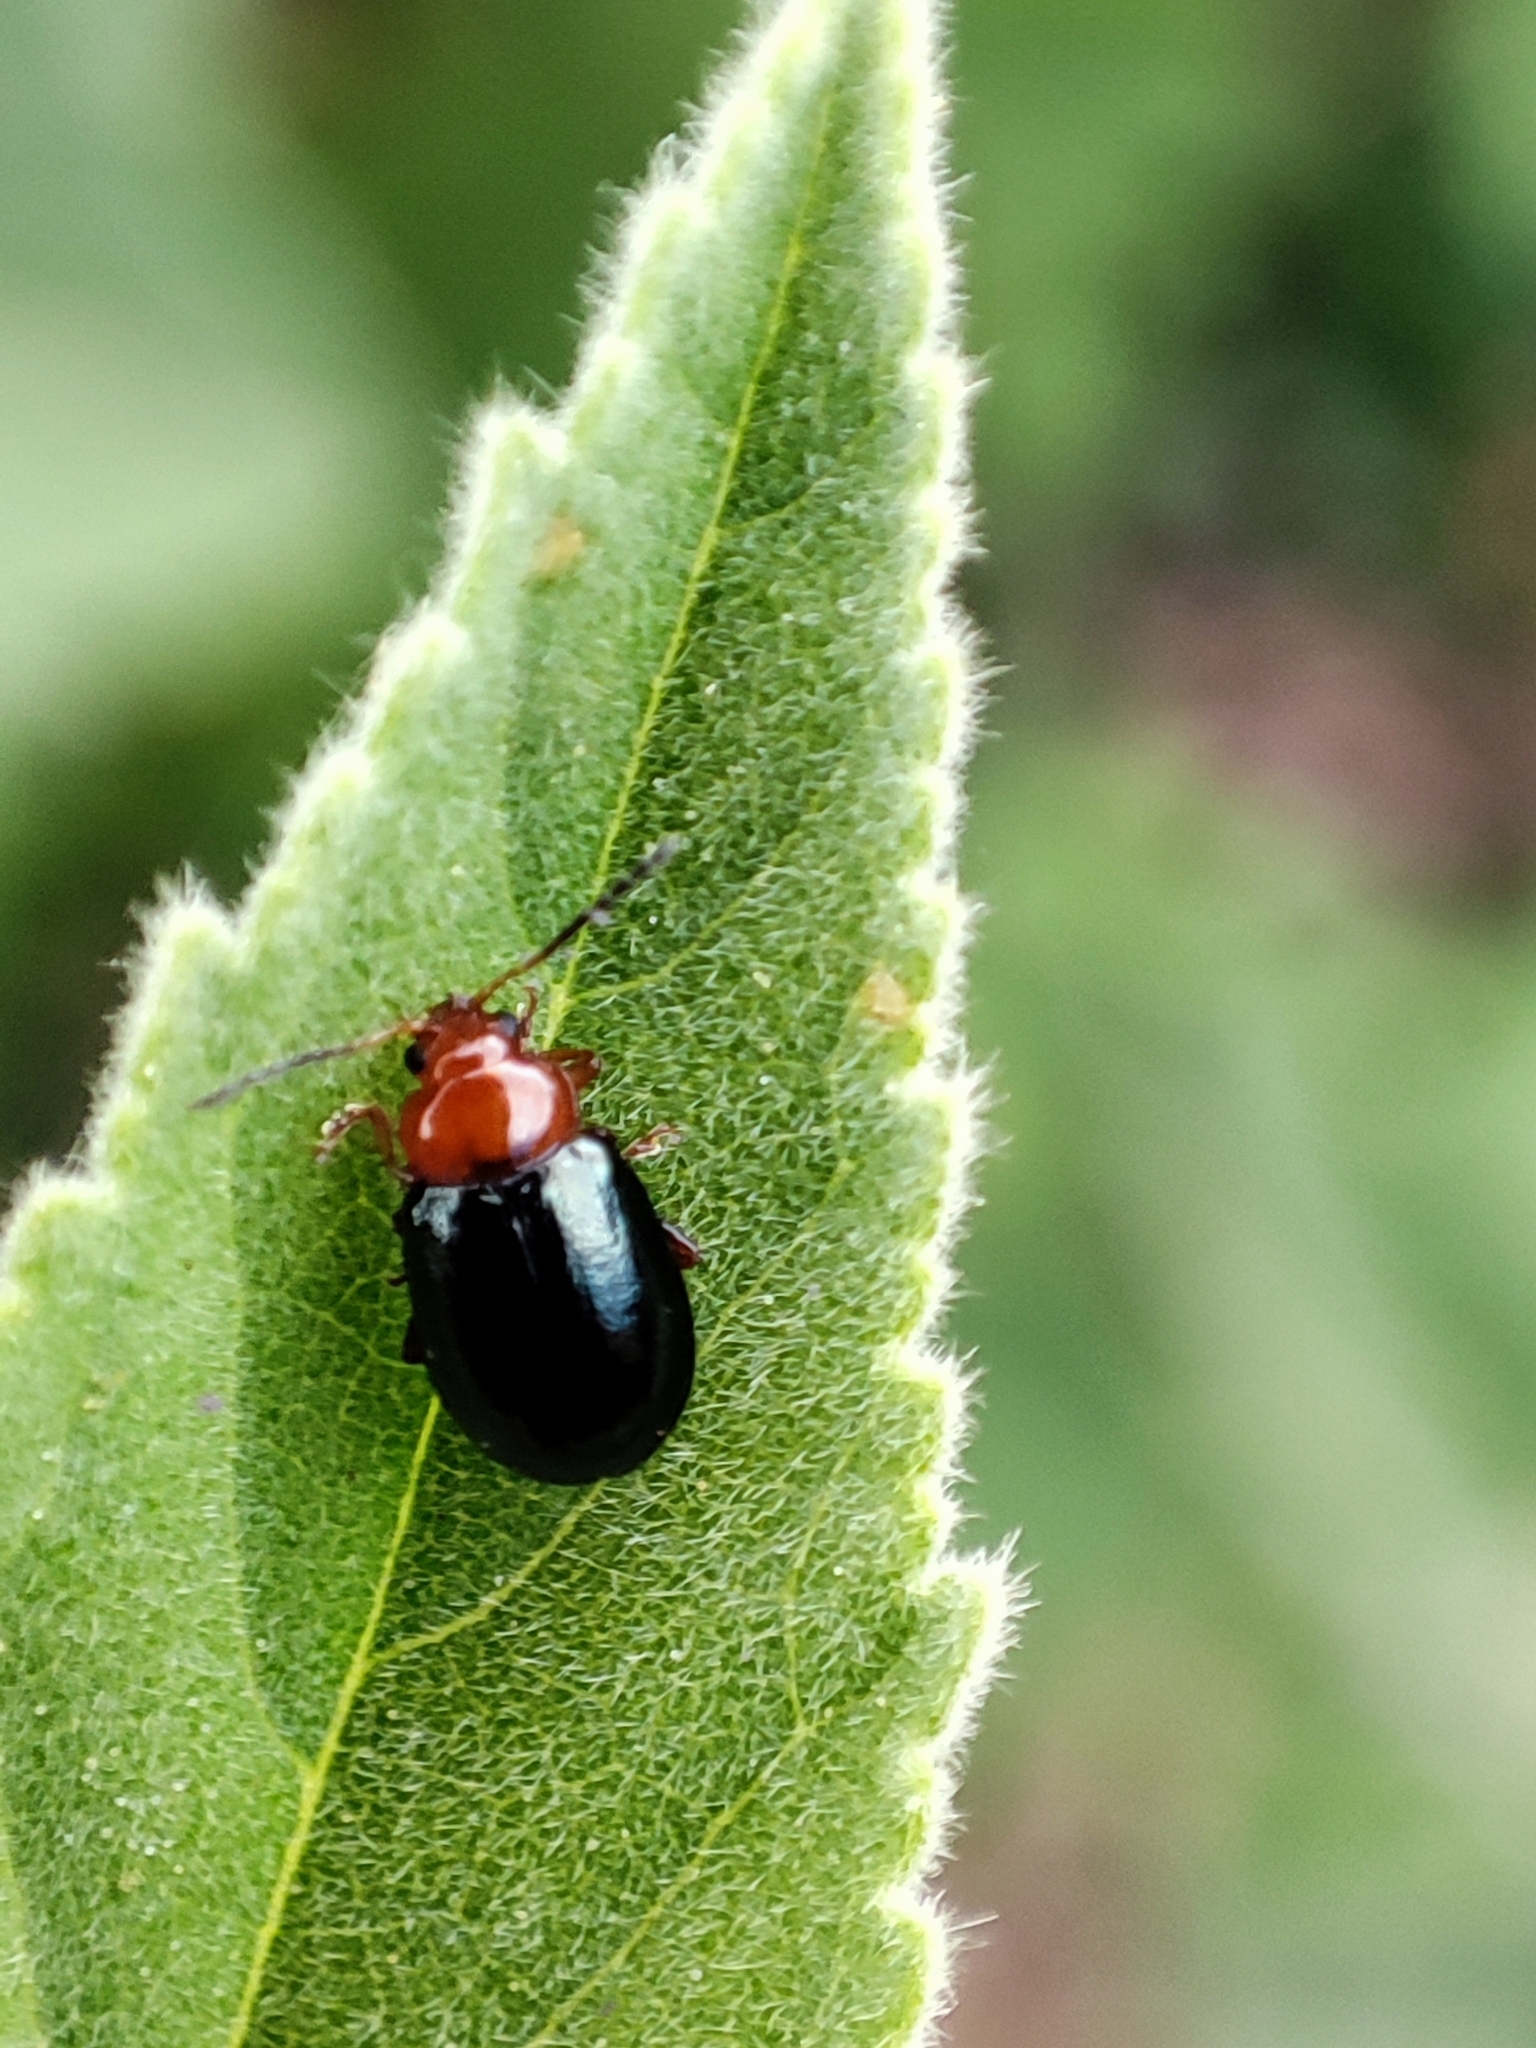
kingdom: Animalia
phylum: Arthropoda
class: Insecta
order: Coleoptera
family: Chrysomelidae
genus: Podagrica
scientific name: Podagrica fuscicornis
